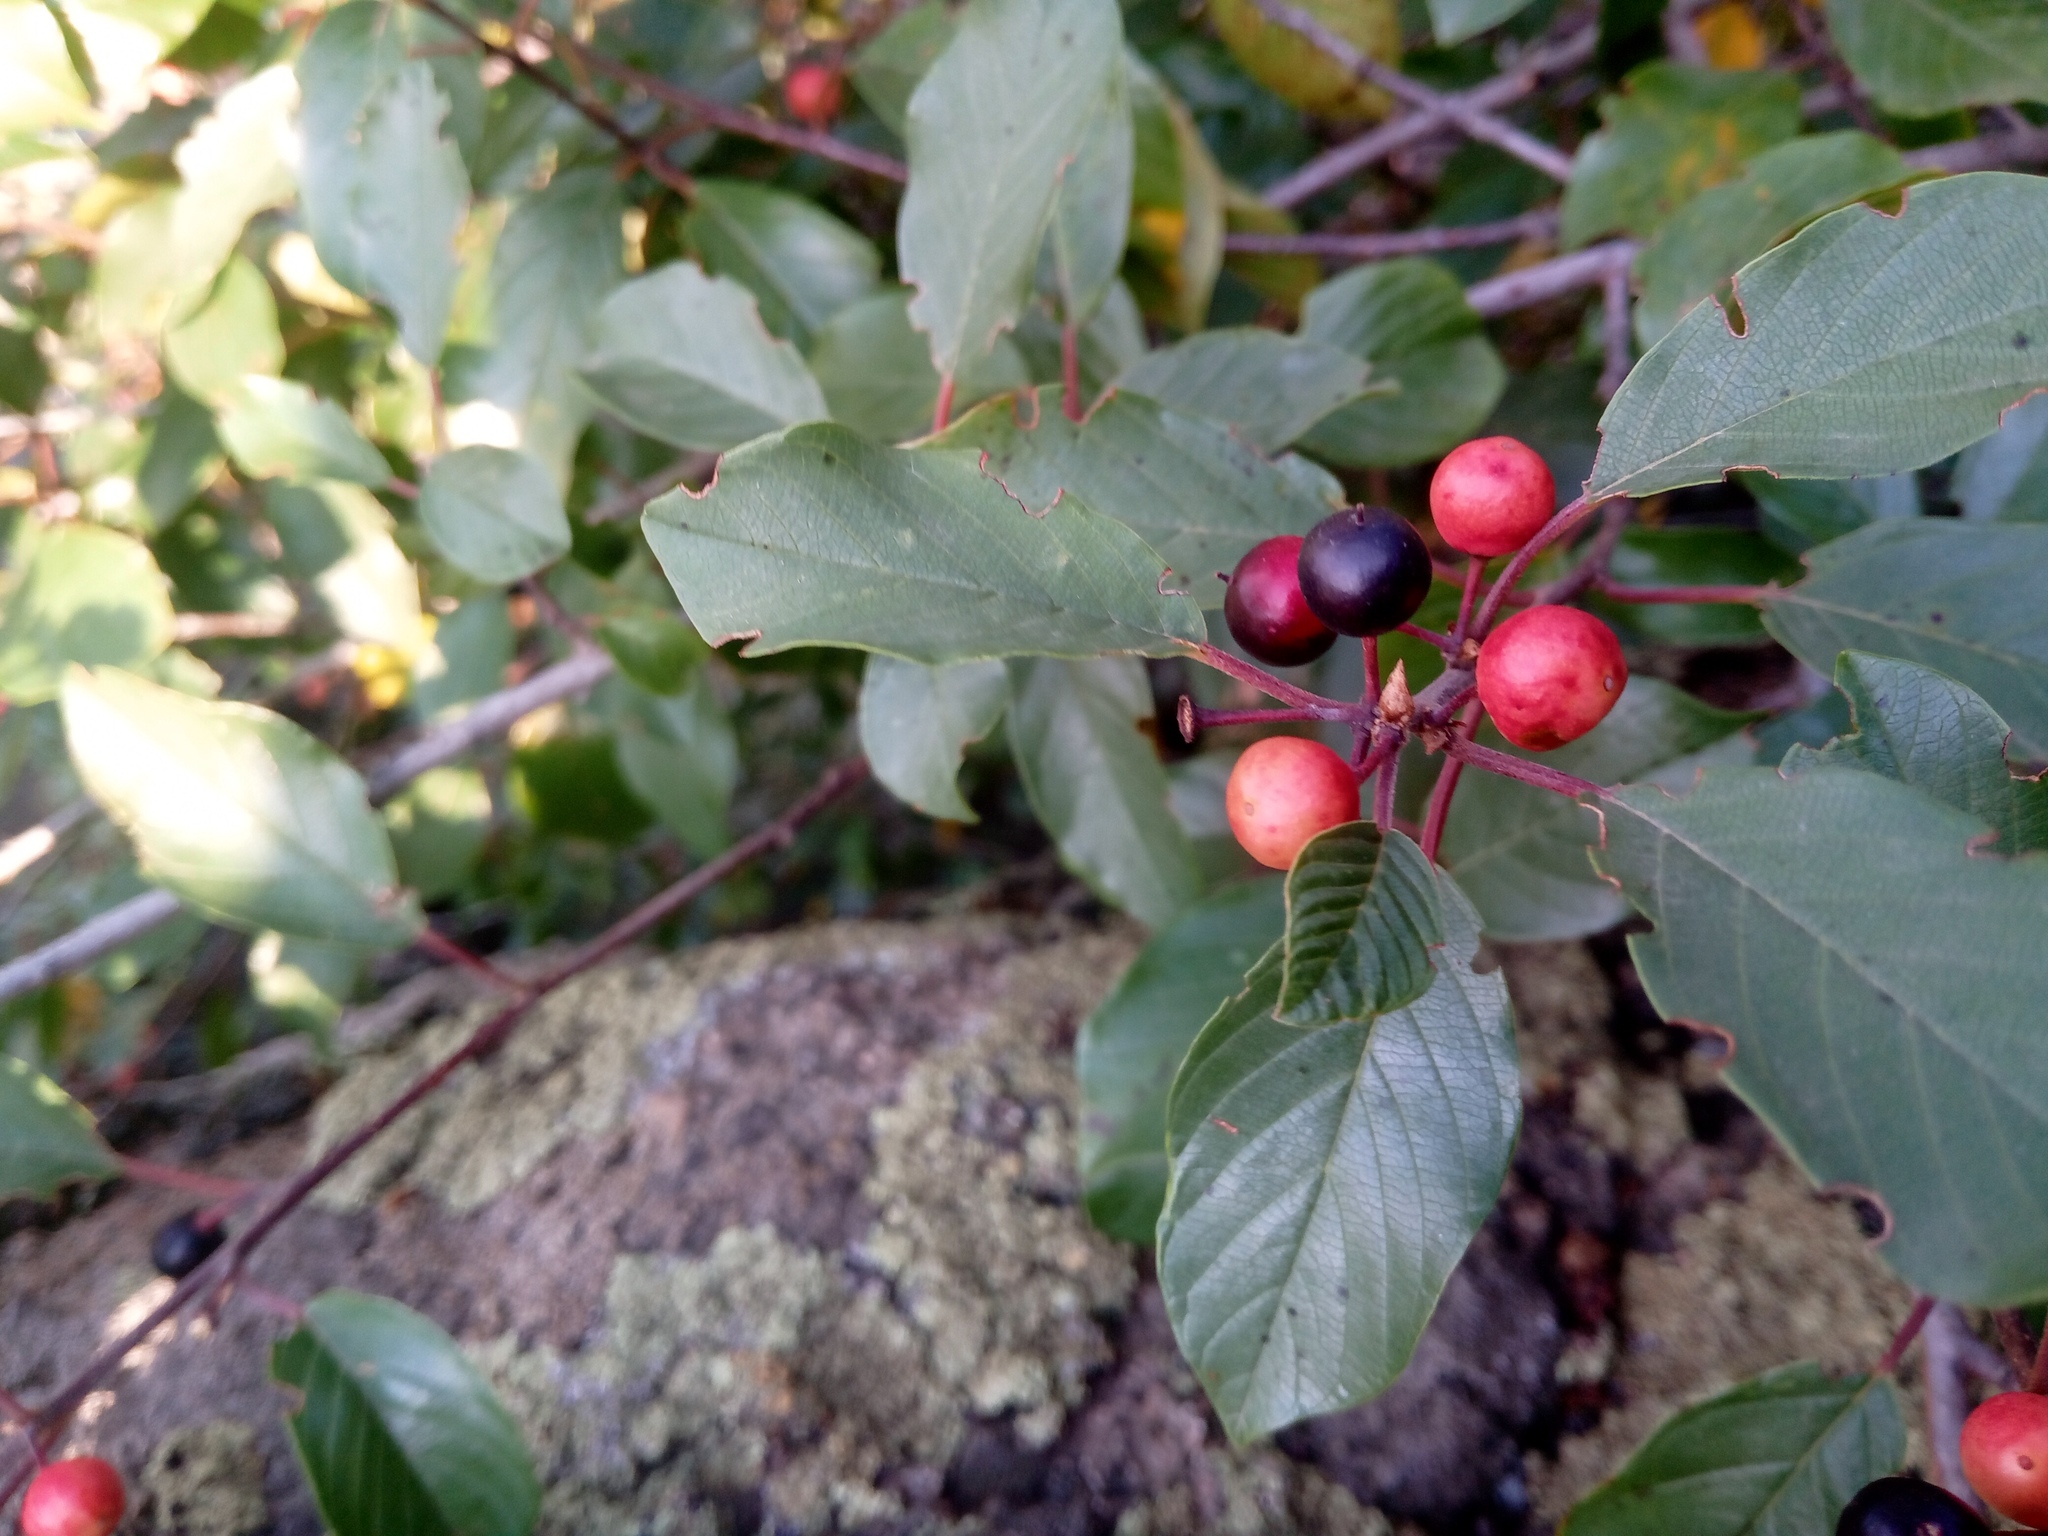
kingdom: Plantae
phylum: Tracheophyta
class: Magnoliopsida
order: Rosales
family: Rhamnaceae
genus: Frangula
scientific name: Frangula alnus
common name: Alder buckthorn
